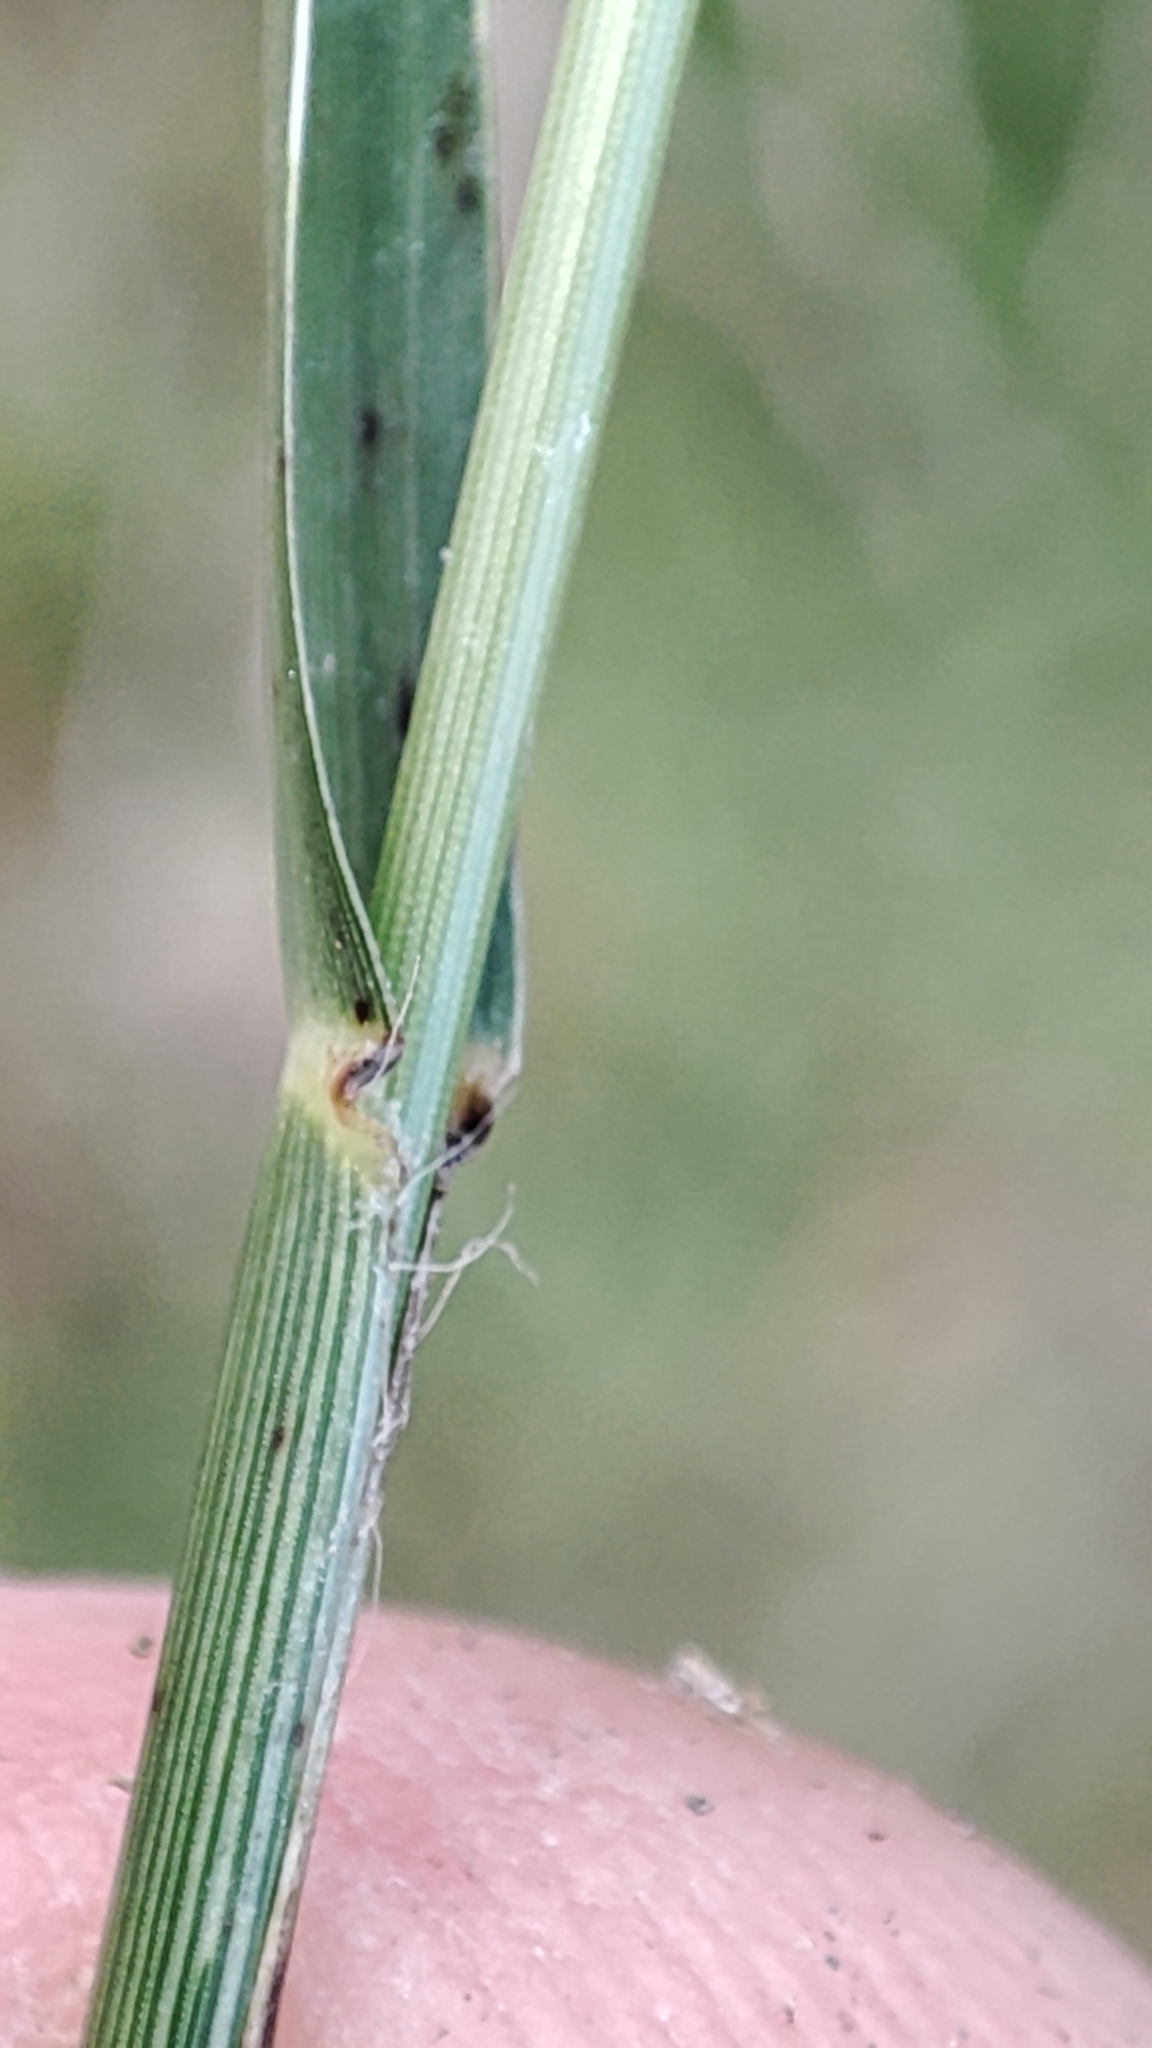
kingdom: Plantae
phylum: Tracheophyta
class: Liliopsida
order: Poales
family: Poaceae
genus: Eleusine
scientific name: Eleusine tristachya
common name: American yard-grass
